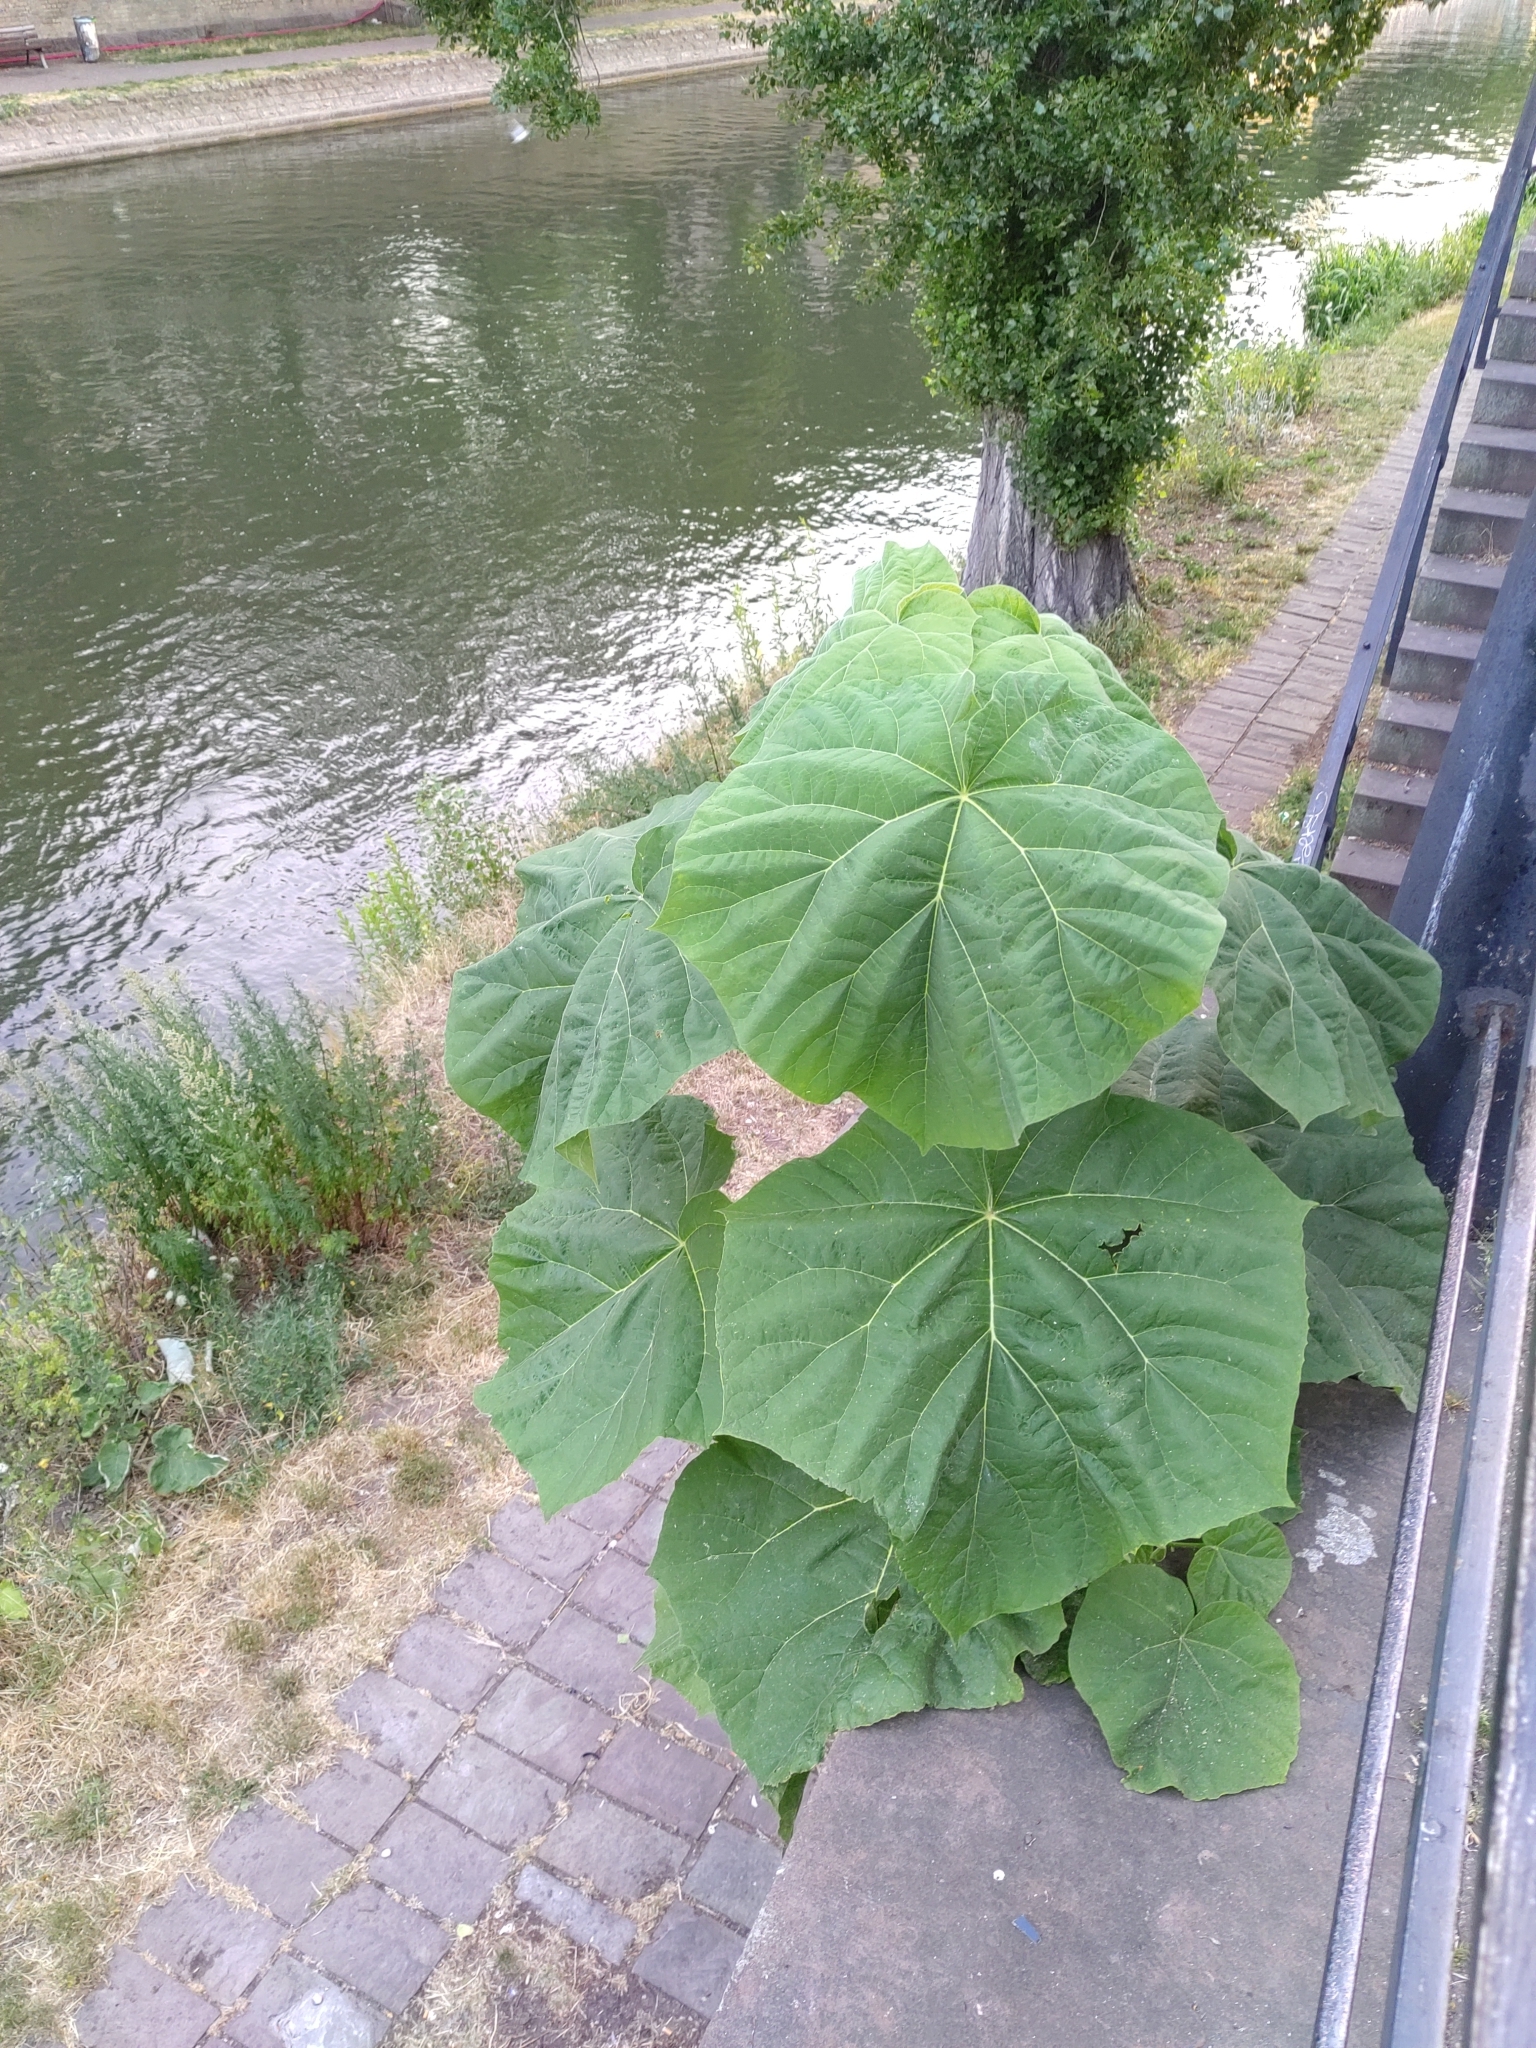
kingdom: Plantae
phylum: Tracheophyta
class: Magnoliopsida
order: Lamiales
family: Paulowniaceae
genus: Paulownia
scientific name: Paulownia tomentosa
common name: Foxglove-tree
